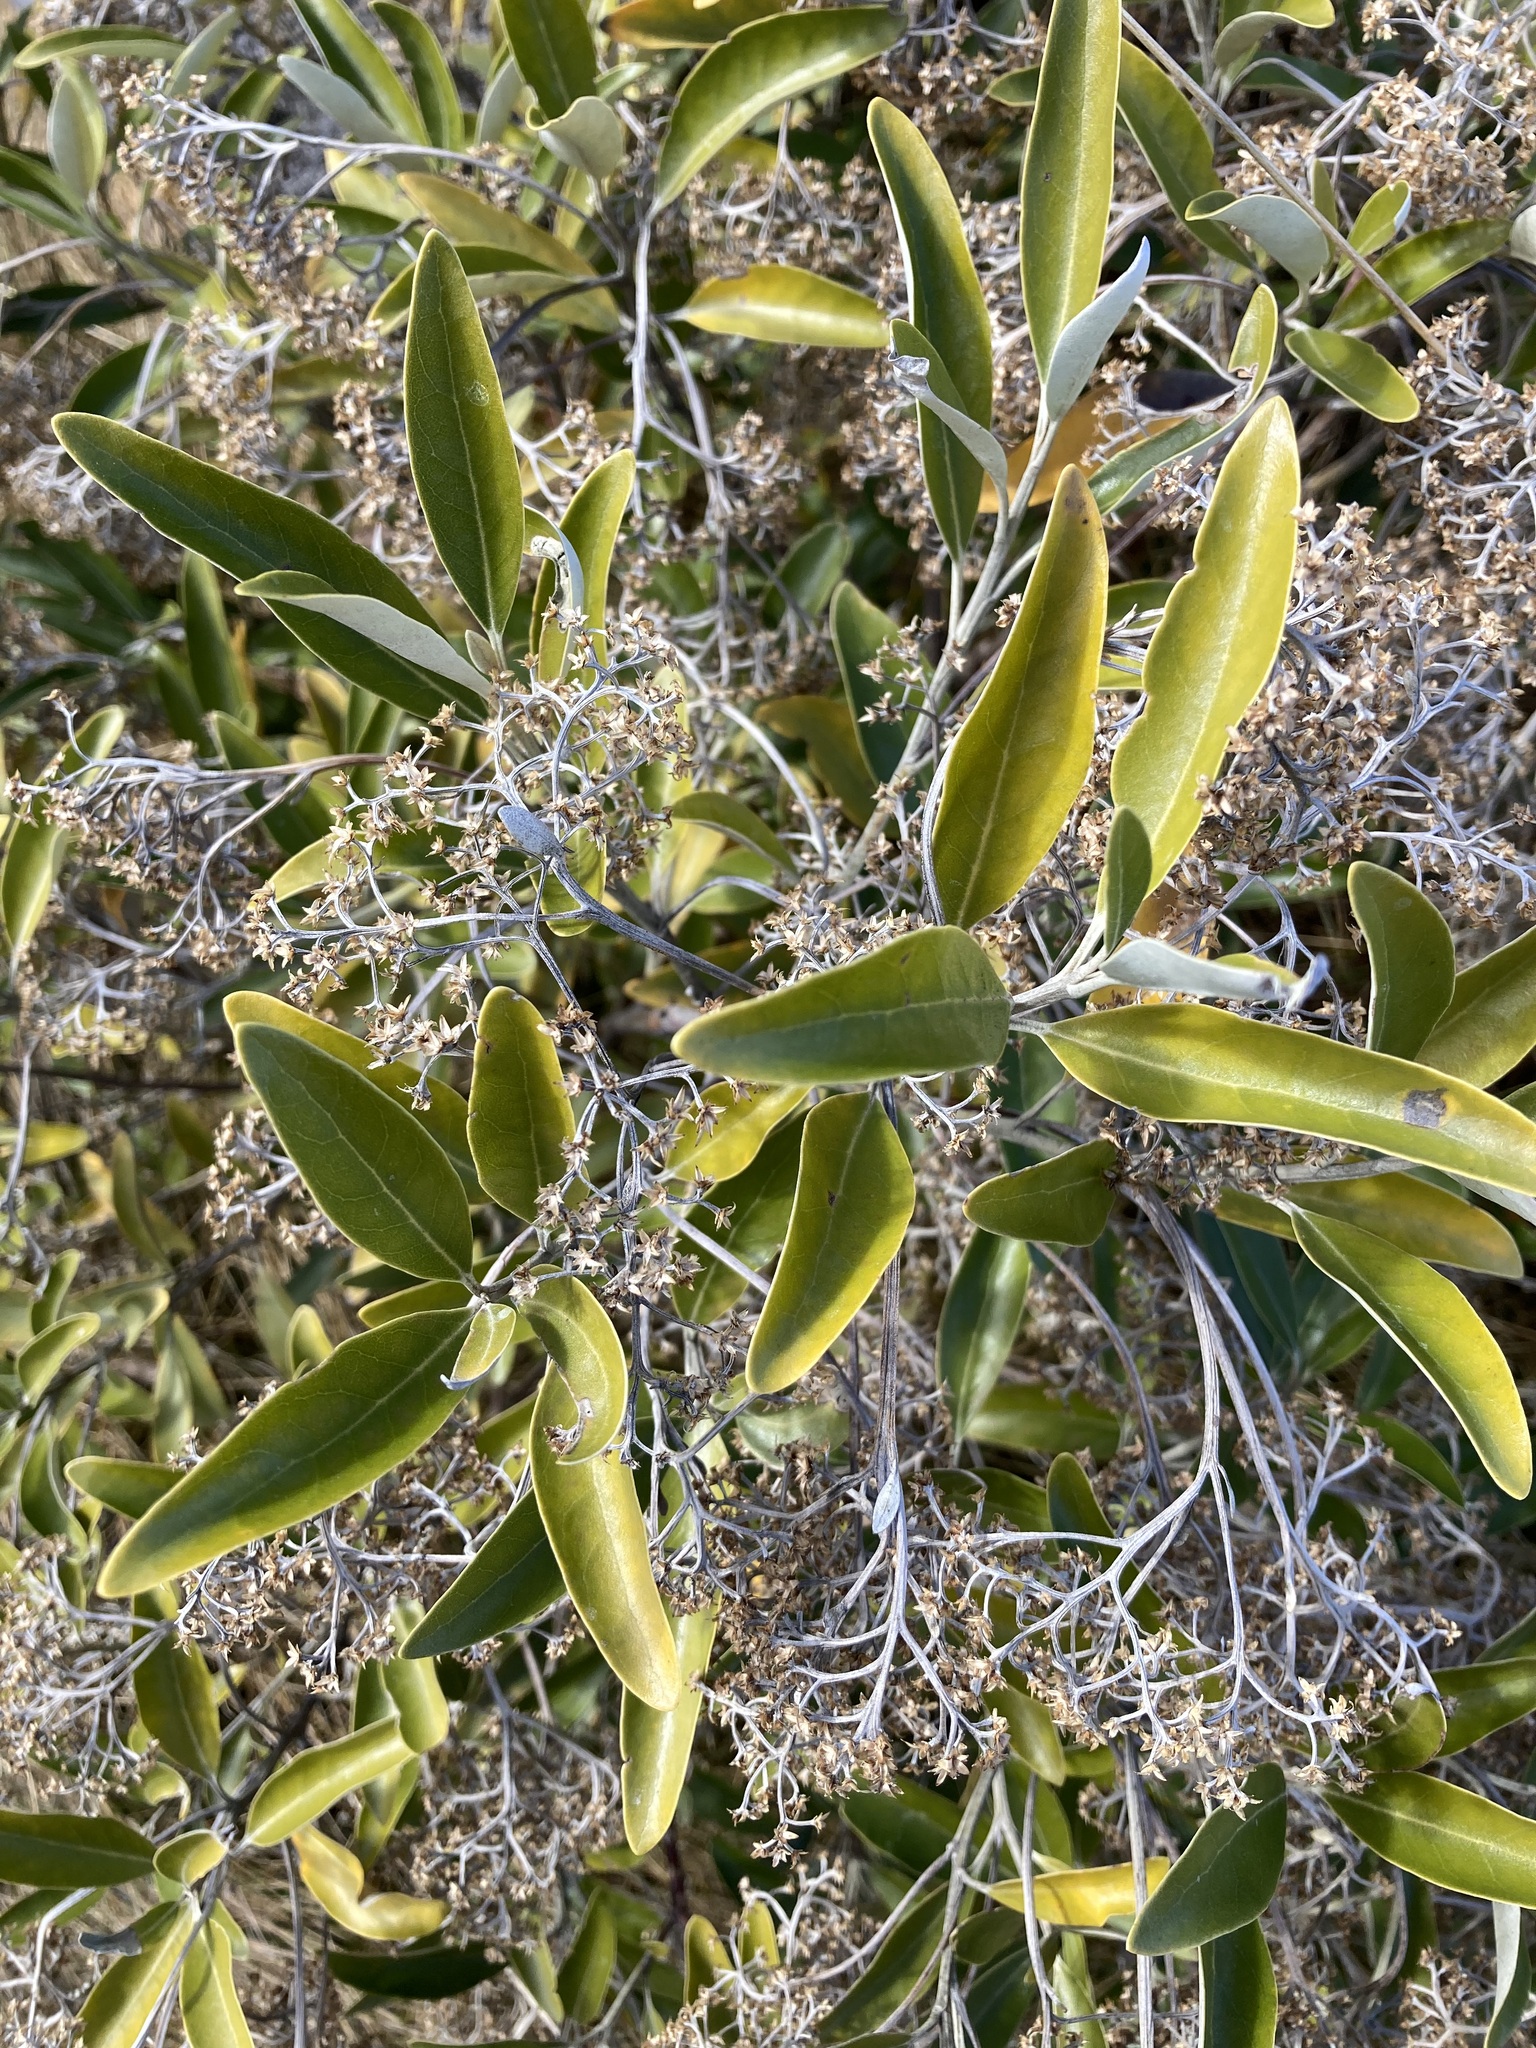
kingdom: Plantae
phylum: Tracheophyta
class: Magnoliopsida
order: Asterales
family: Asteraceae
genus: Olearia
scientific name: Olearia avicenniifolia
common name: Mangrove-leaf daisybush
